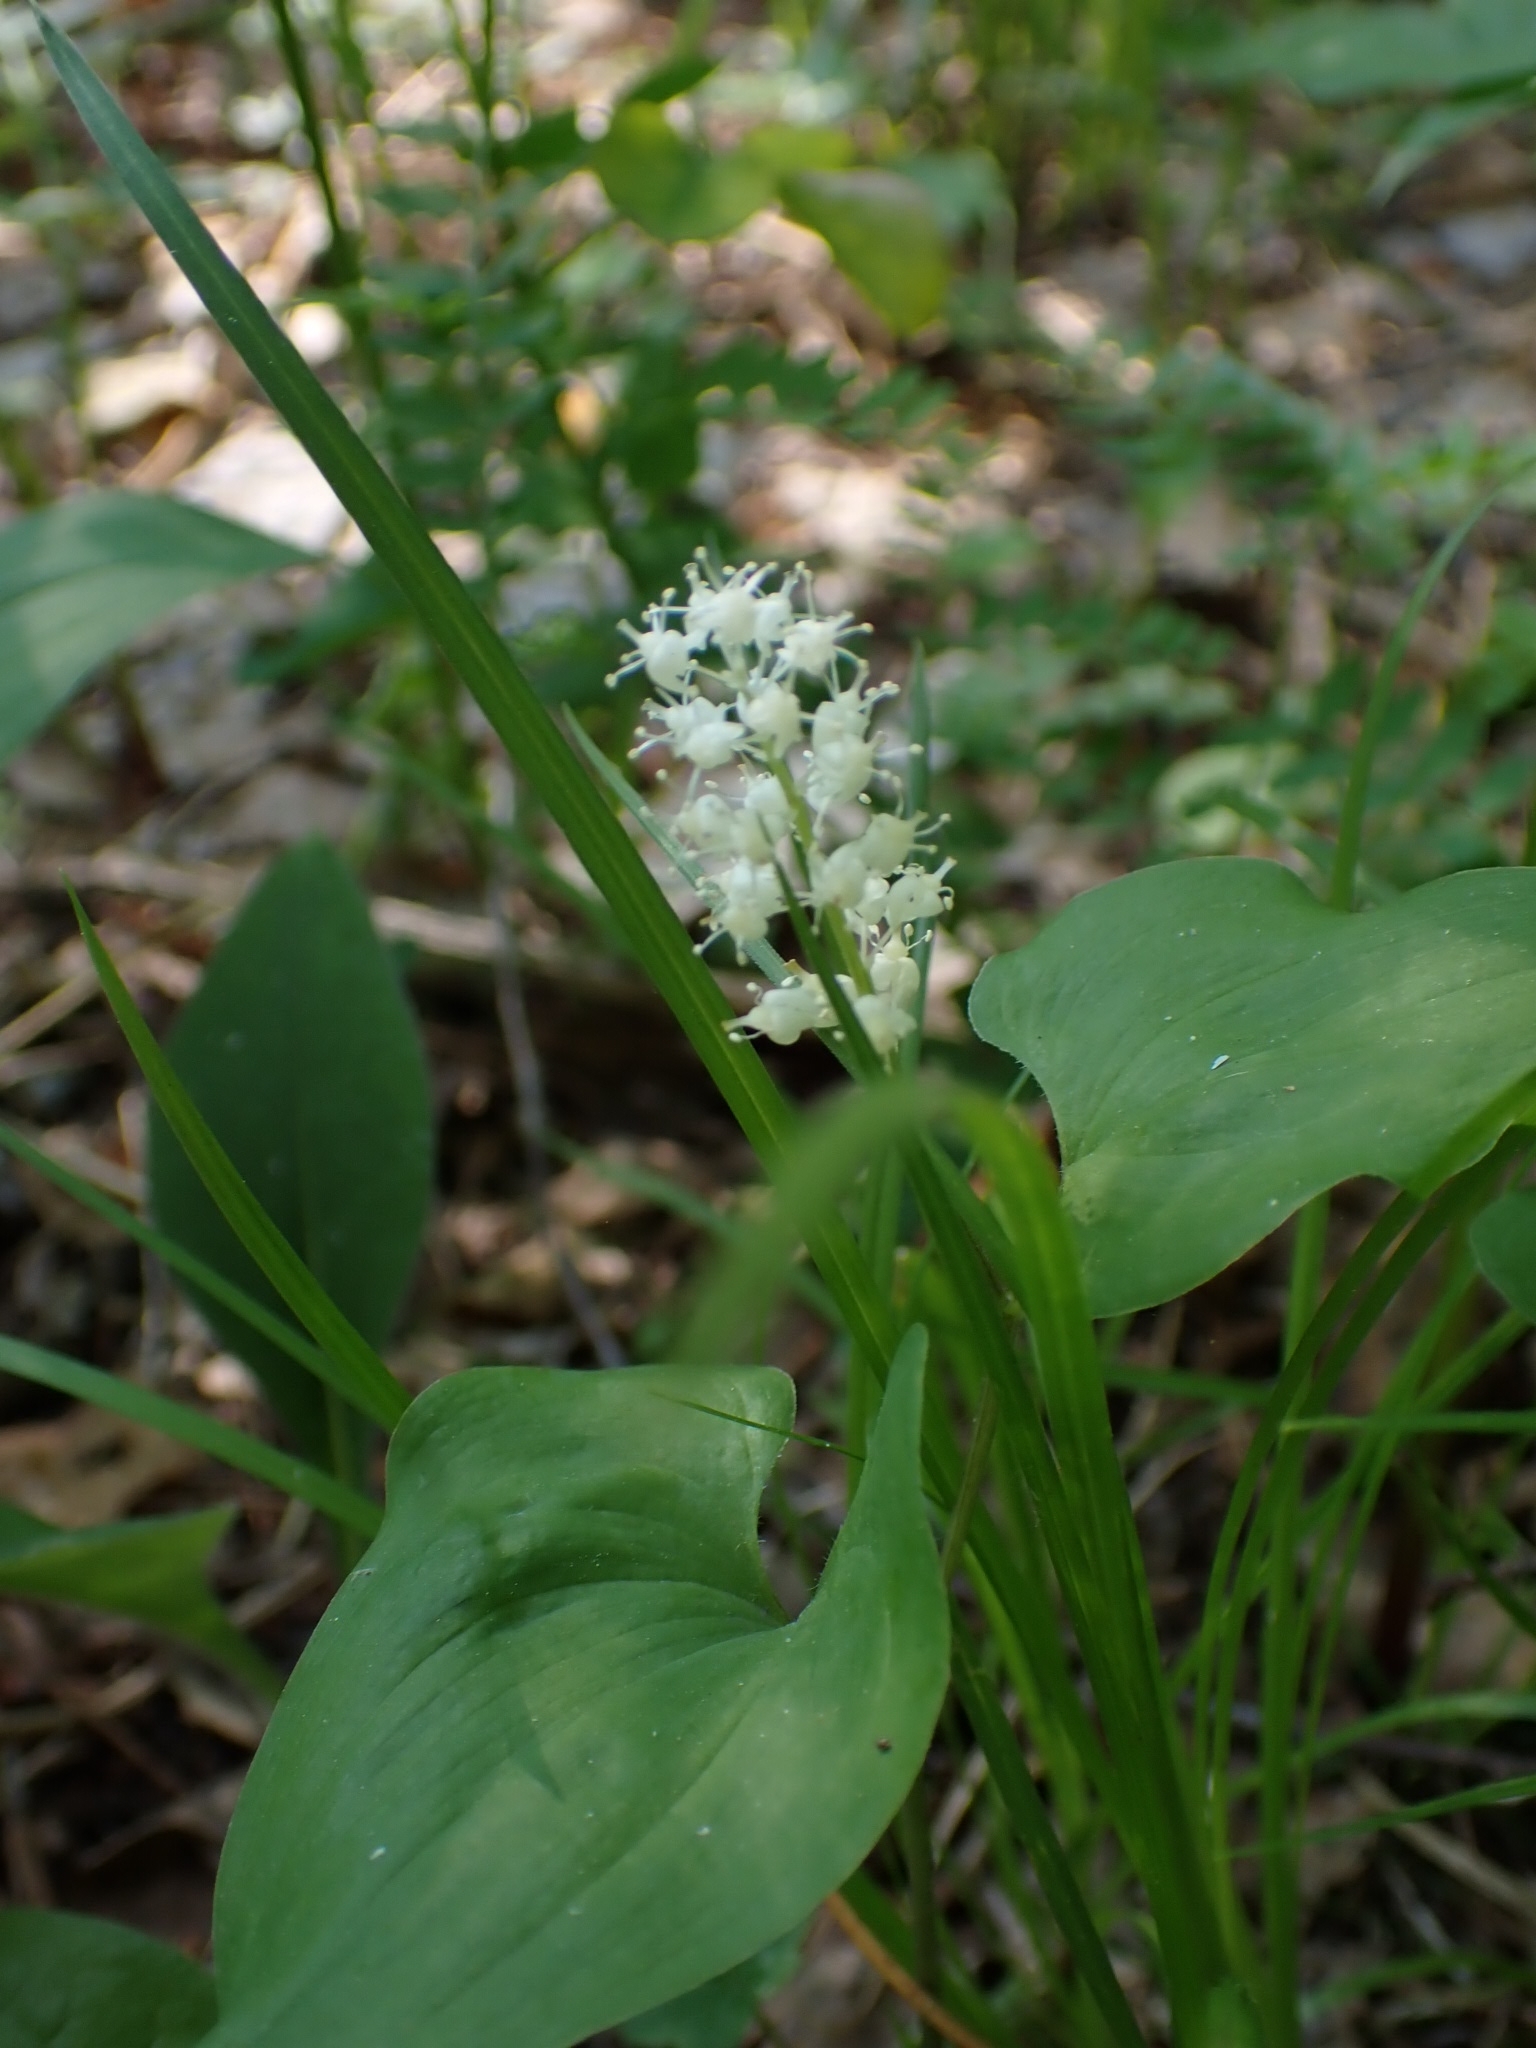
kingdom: Plantae
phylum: Tracheophyta
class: Liliopsida
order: Asparagales
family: Asparagaceae
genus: Maianthemum
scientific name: Maianthemum bifolium
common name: May lily
